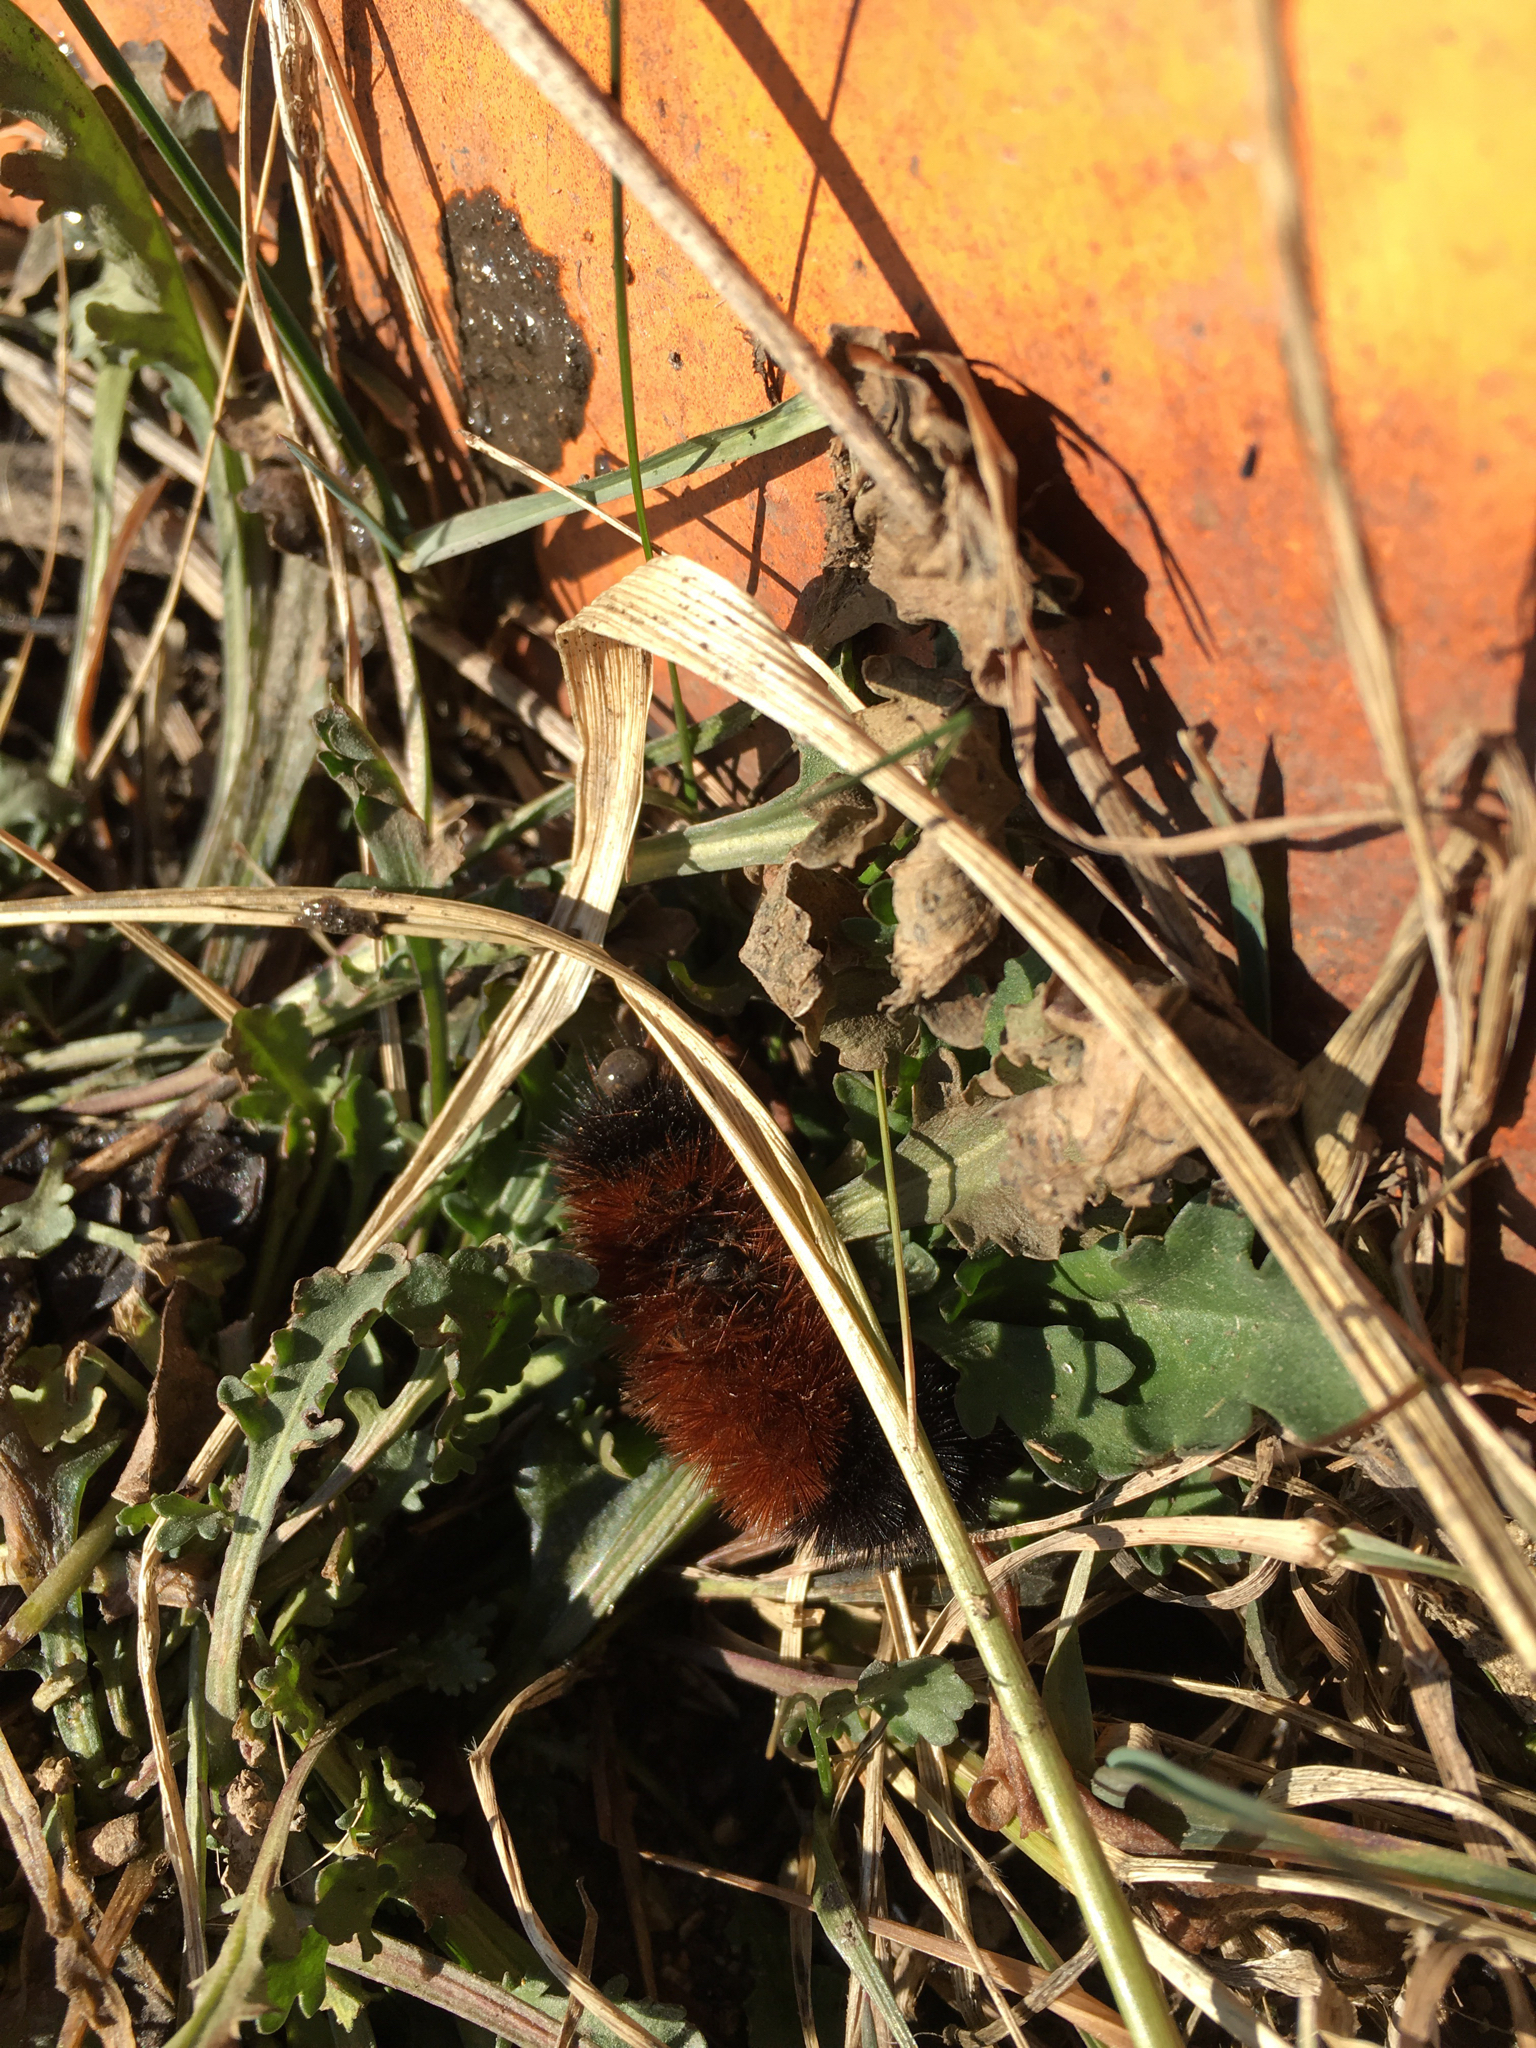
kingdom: Animalia
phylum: Arthropoda
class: Insecta
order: Lepidoptera
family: Erebidae
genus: Pyrrharctia
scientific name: Pyrrharctia isabella
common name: Isabella tiger moth
